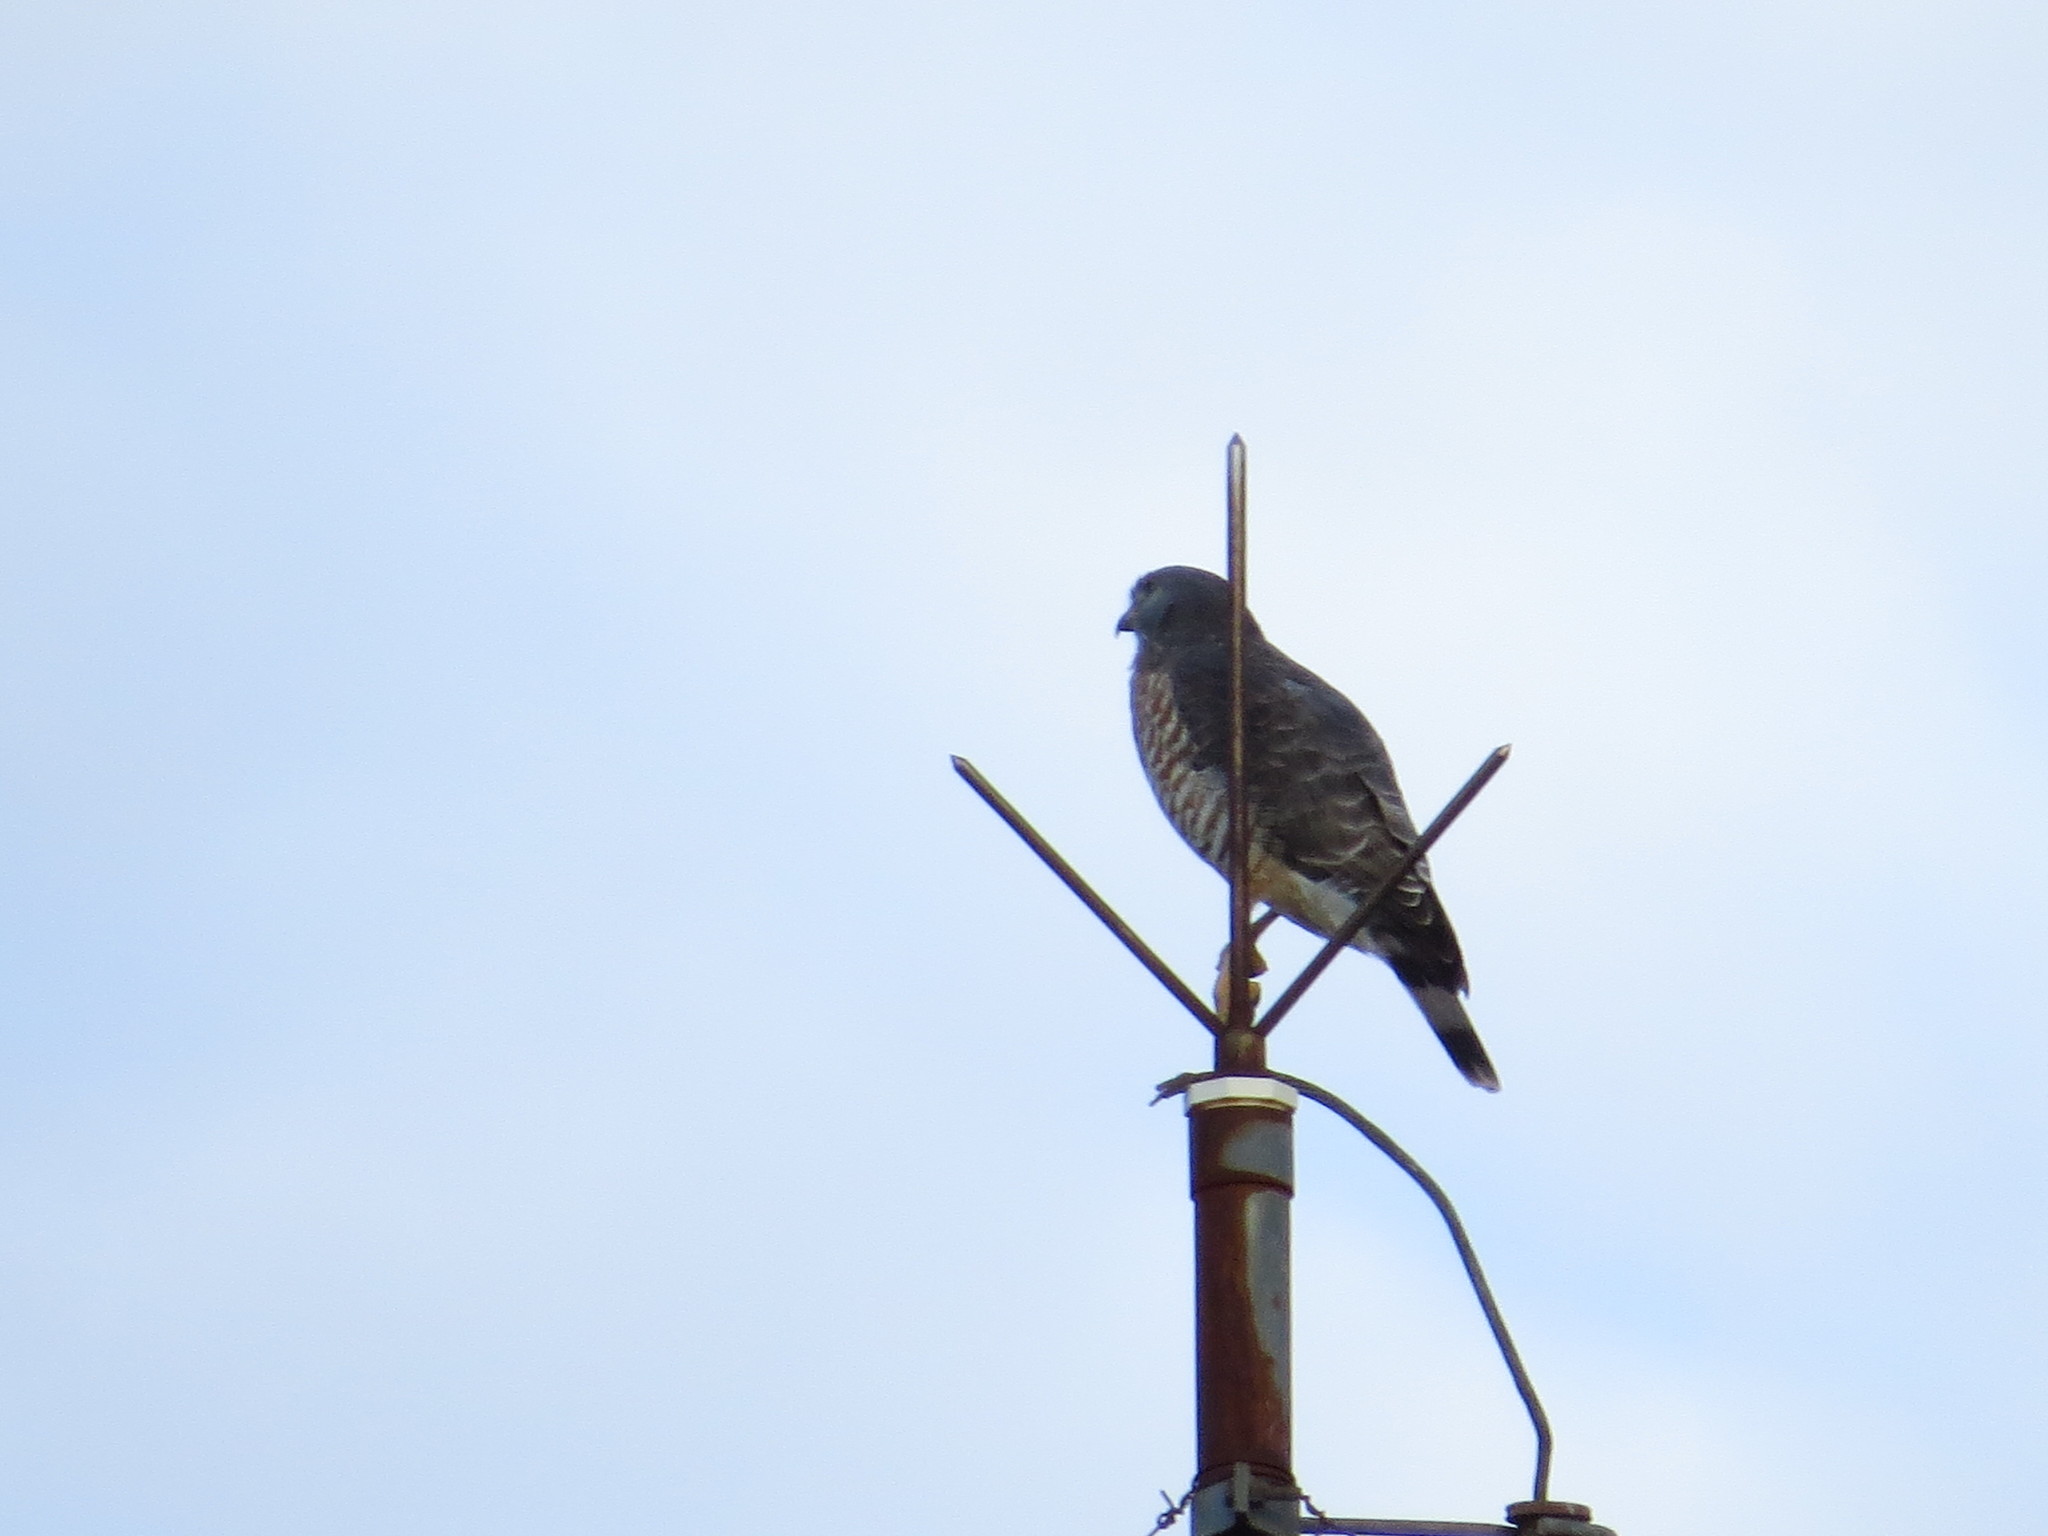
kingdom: Animalia
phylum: Chordata
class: Aves
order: Accipitriformes
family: Accipitridae
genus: Rupornis
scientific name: Rupornis magnirostris
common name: Roadside hawk
